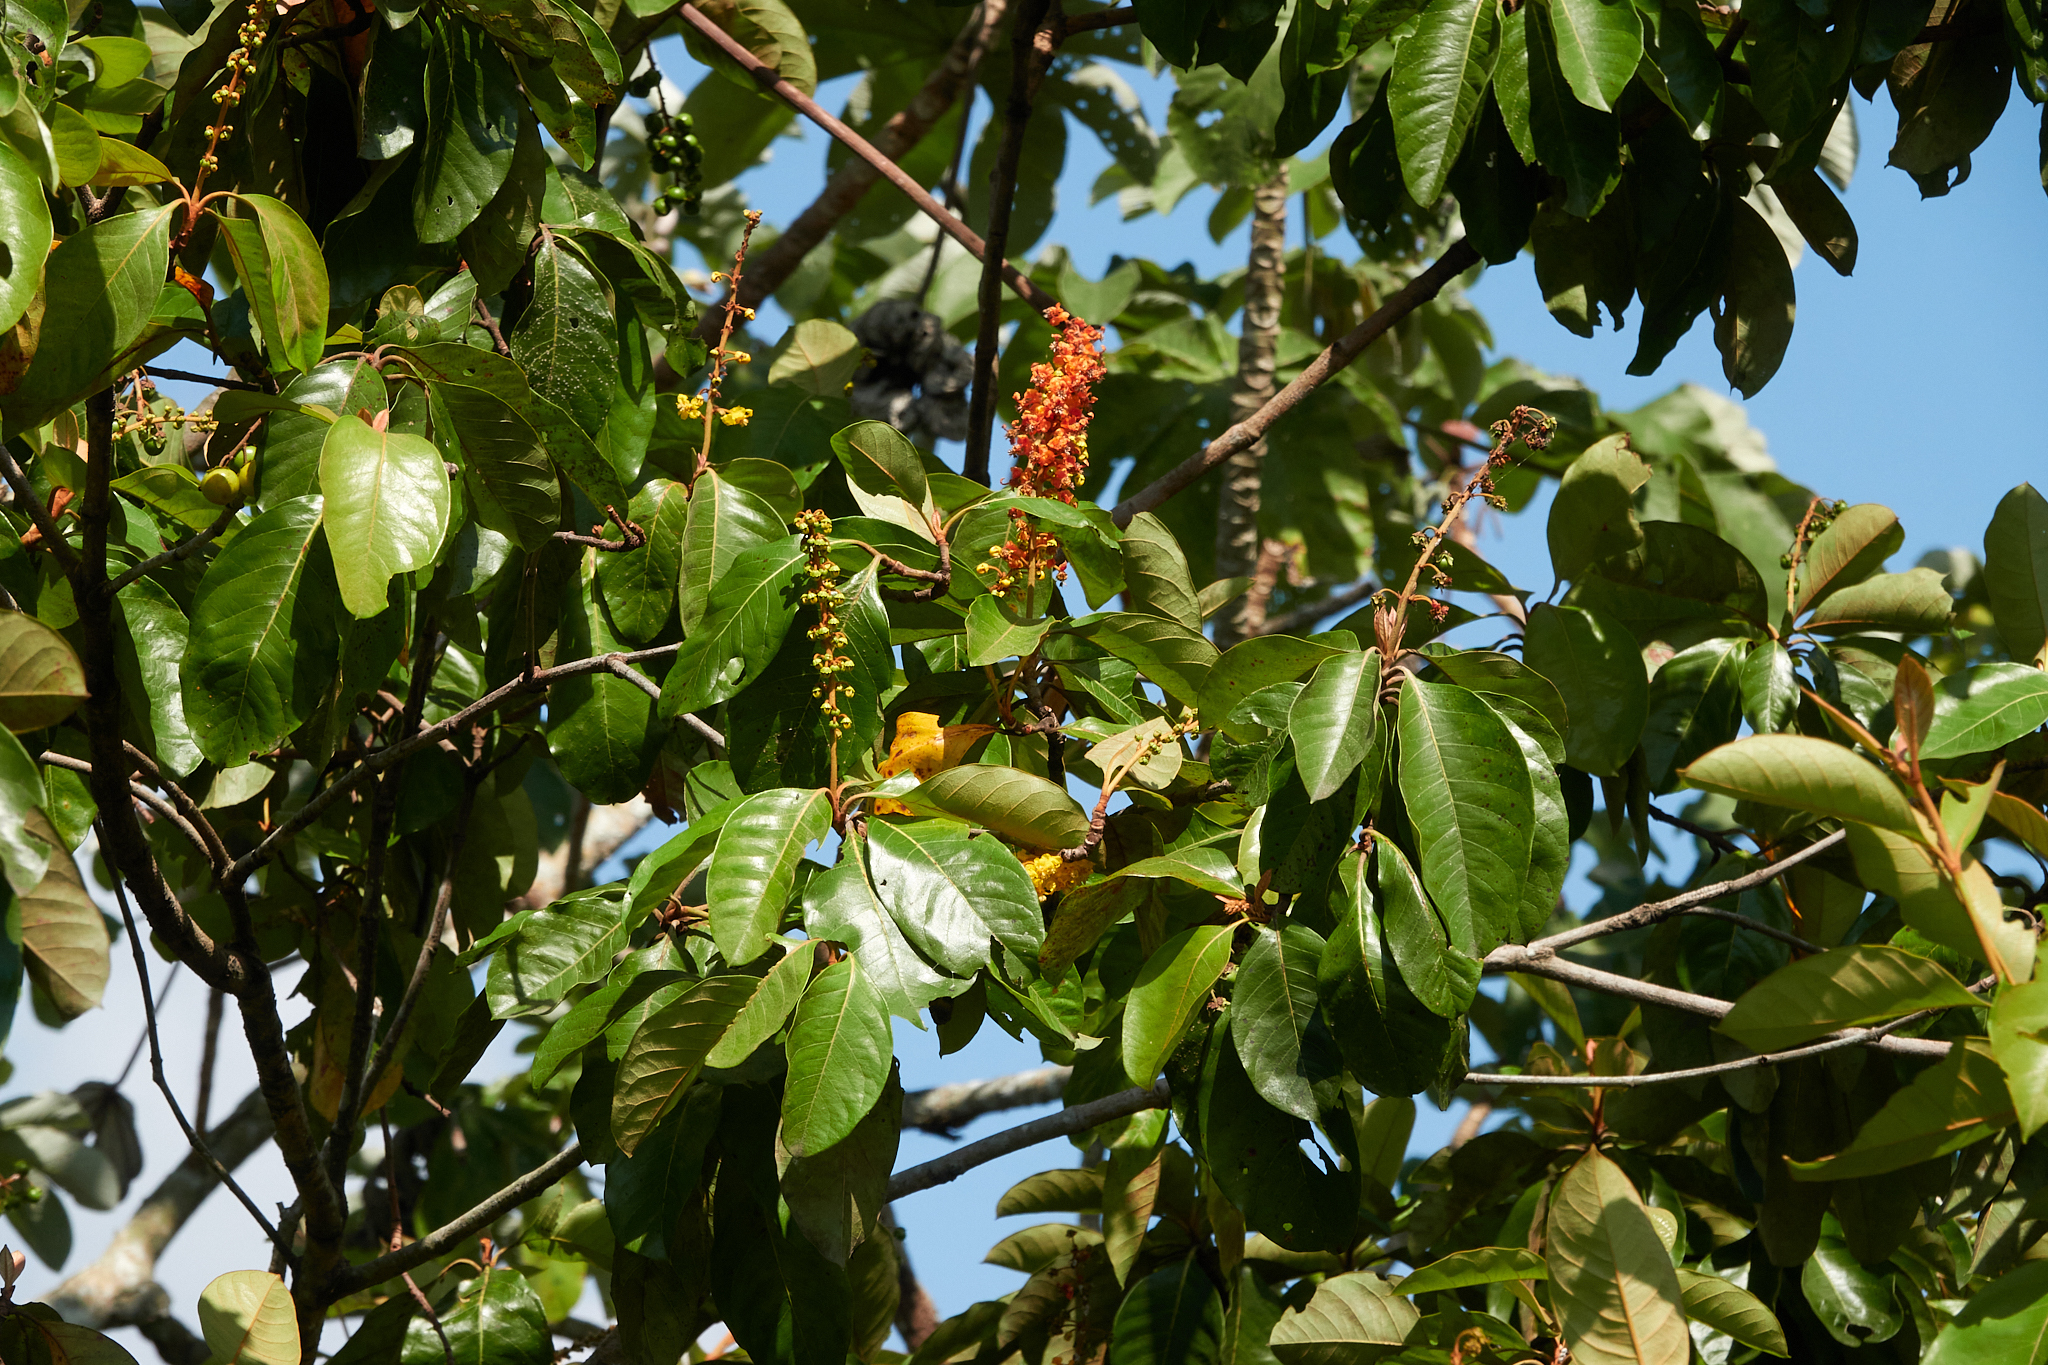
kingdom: Plantae
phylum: Tracheophyta
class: Magnoliopsida
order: Malpighiales
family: Malpighiaceae
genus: Byrsonima
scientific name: Byrsonima crassifolia
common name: Golden spoon
